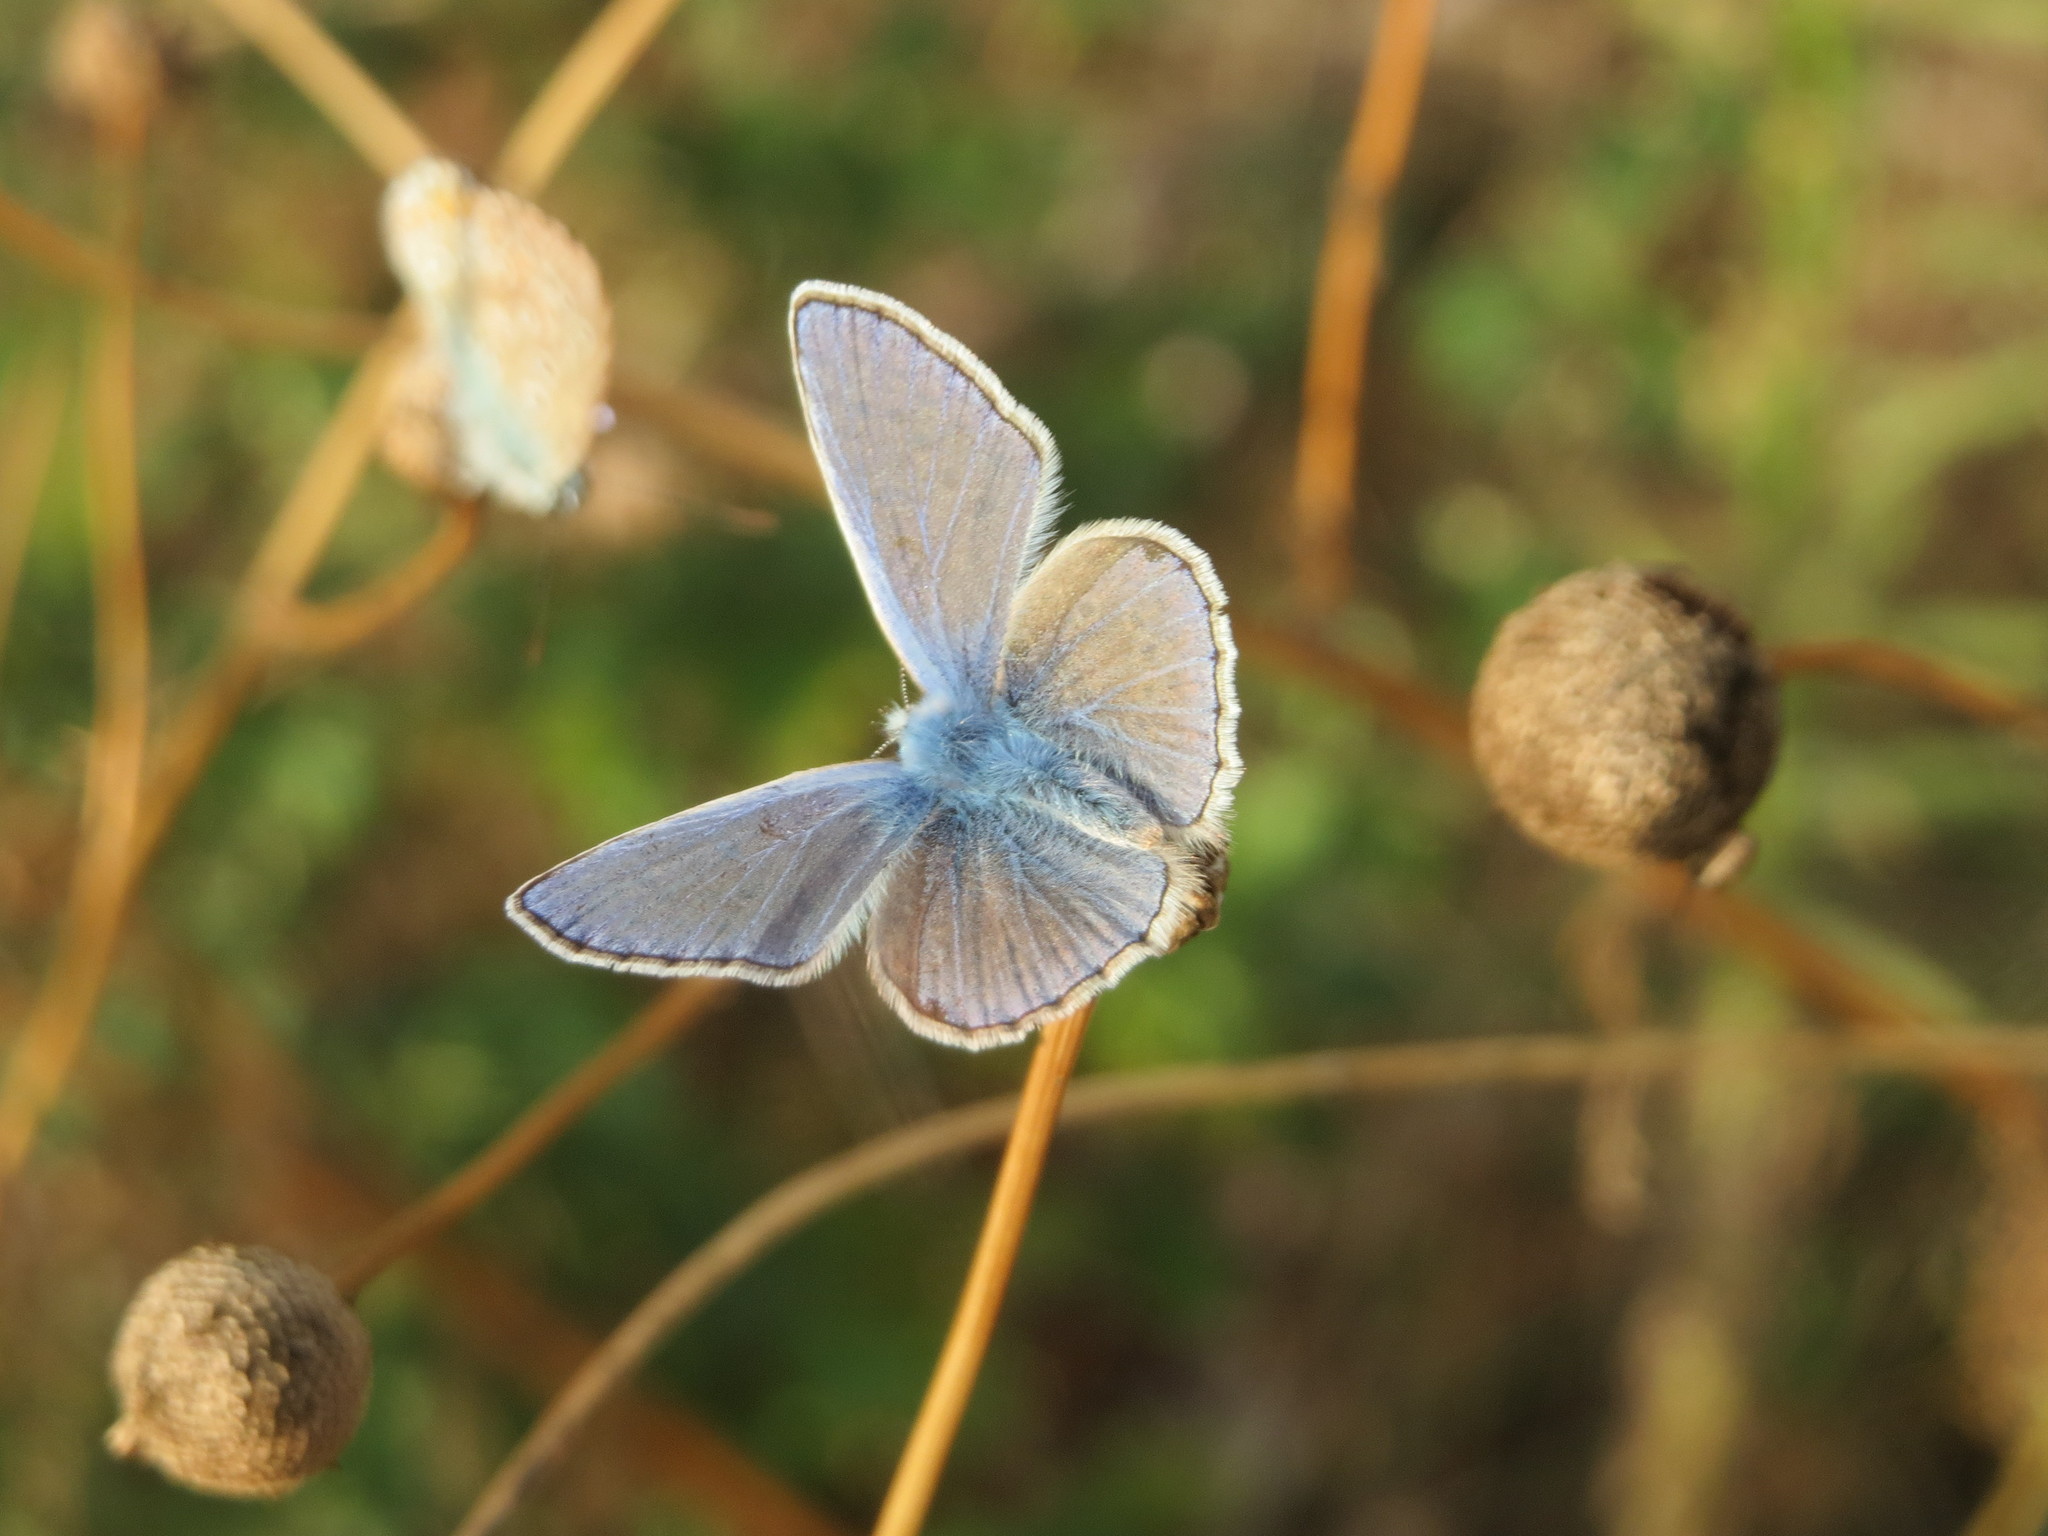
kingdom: Animalia
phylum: Arthropoda
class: Insecta
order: Lepidoptera
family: Lycaenidae
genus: Polyommatus
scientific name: Polyommatus icarus
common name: Common blue
